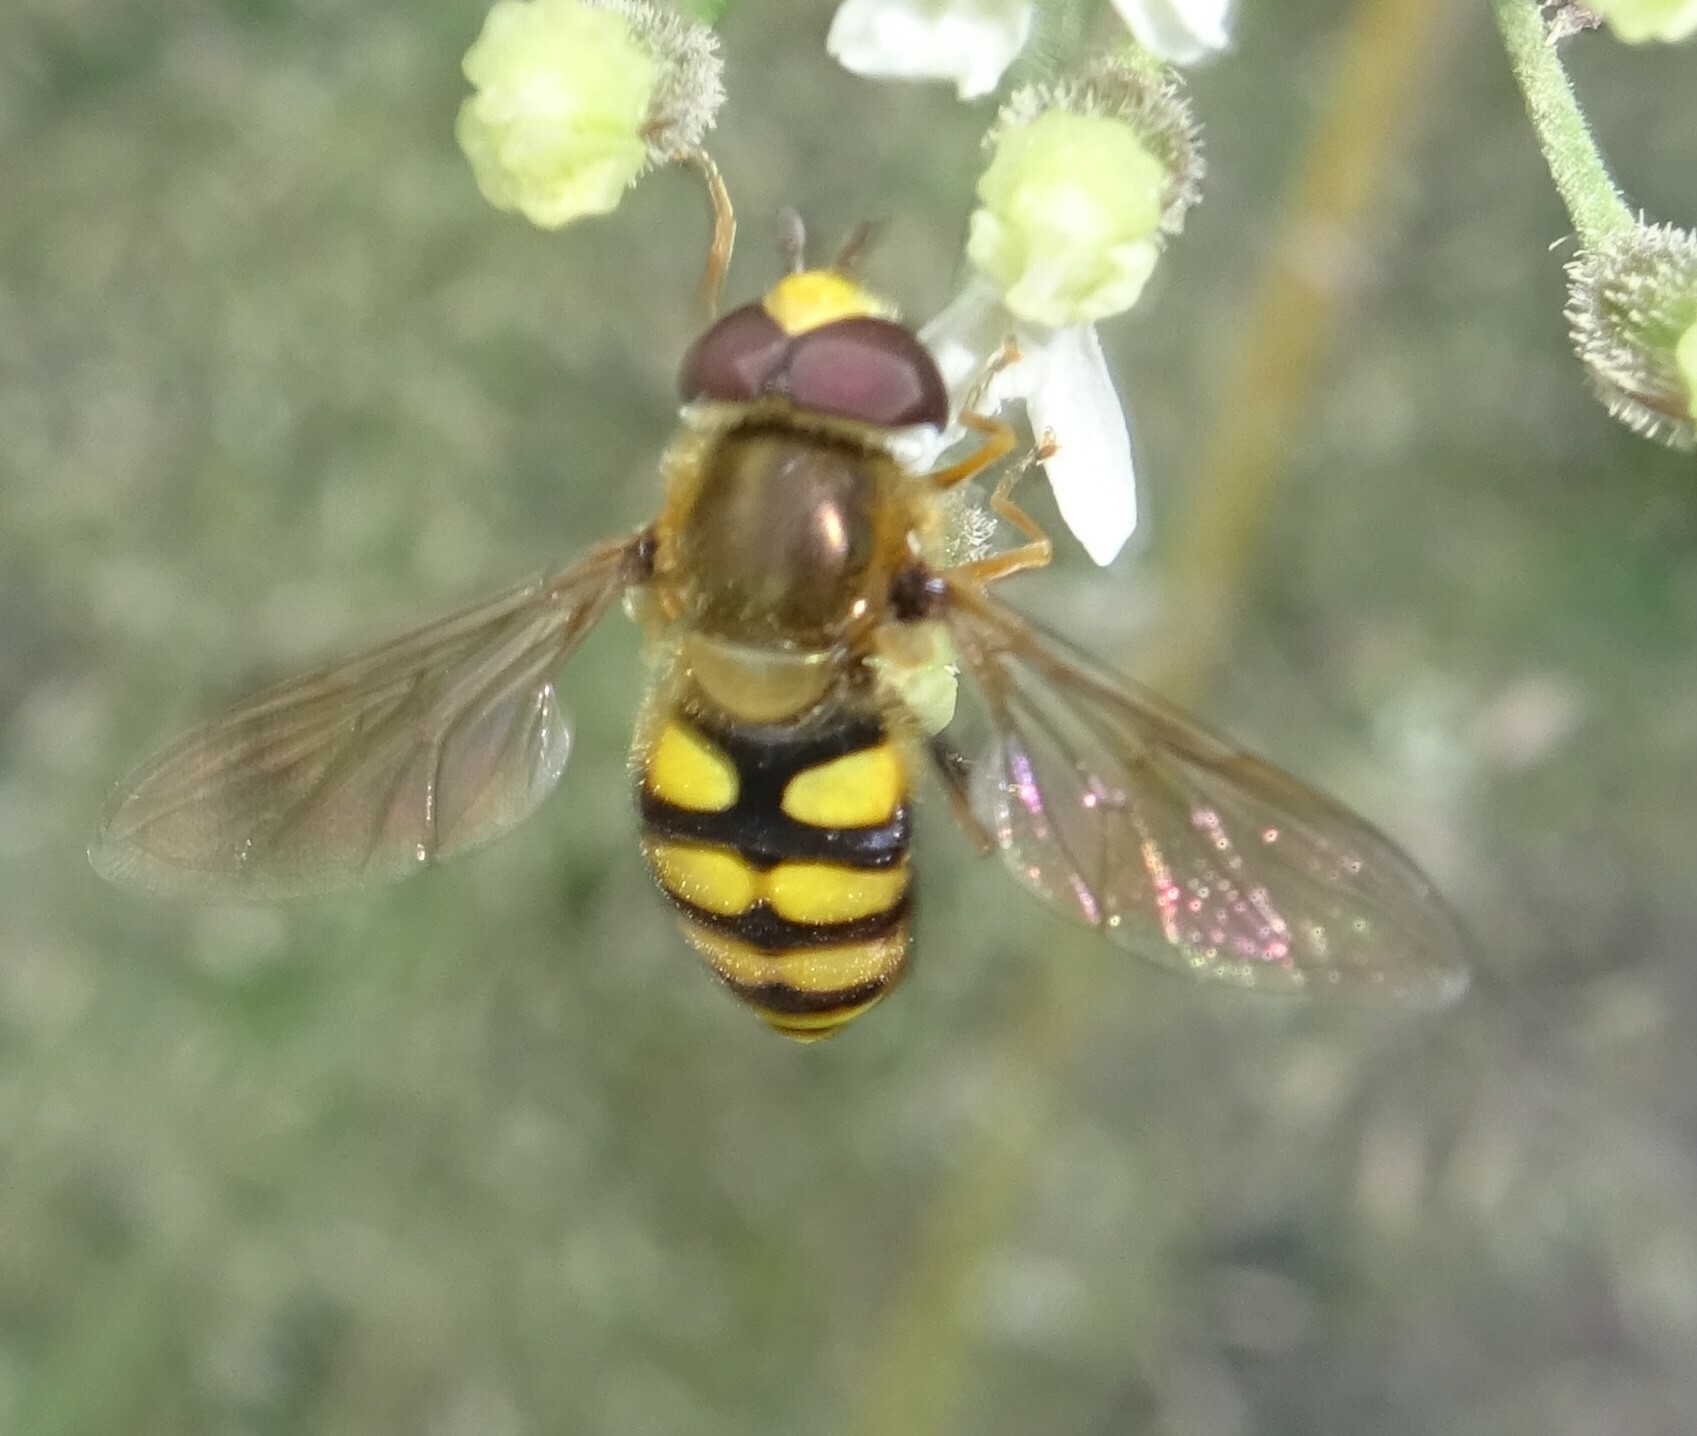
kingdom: Animalia
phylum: Arthropoda
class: Insecta
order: Diptera
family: Syrphidae
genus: Eupeodes
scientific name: Eupeodes corollae
